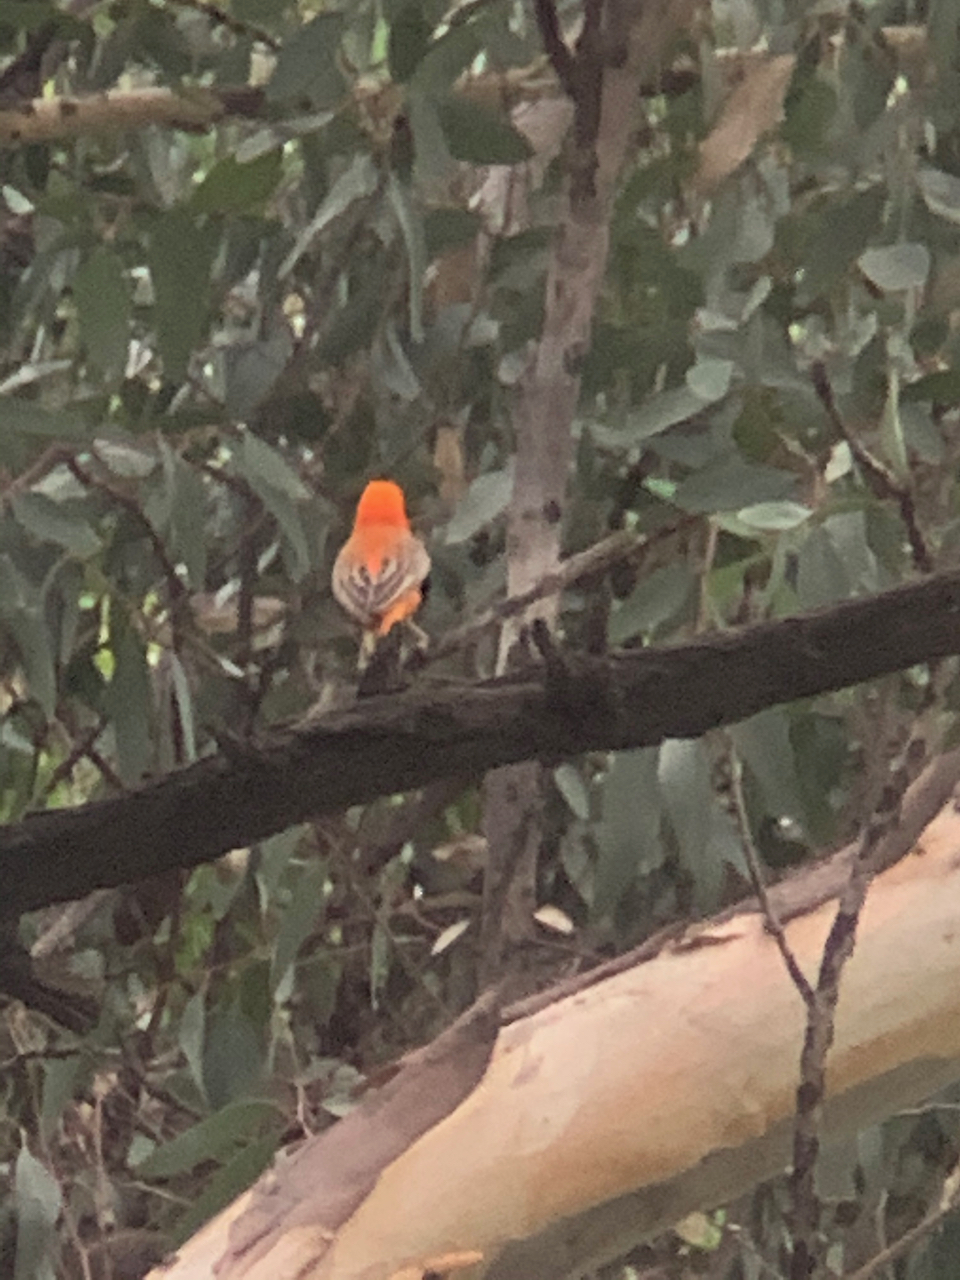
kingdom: Animalia
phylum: Chordata
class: Aves
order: Passeriformes
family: Ploceidae
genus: Euplectes
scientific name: Euplectes orix
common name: Southern red bishop
